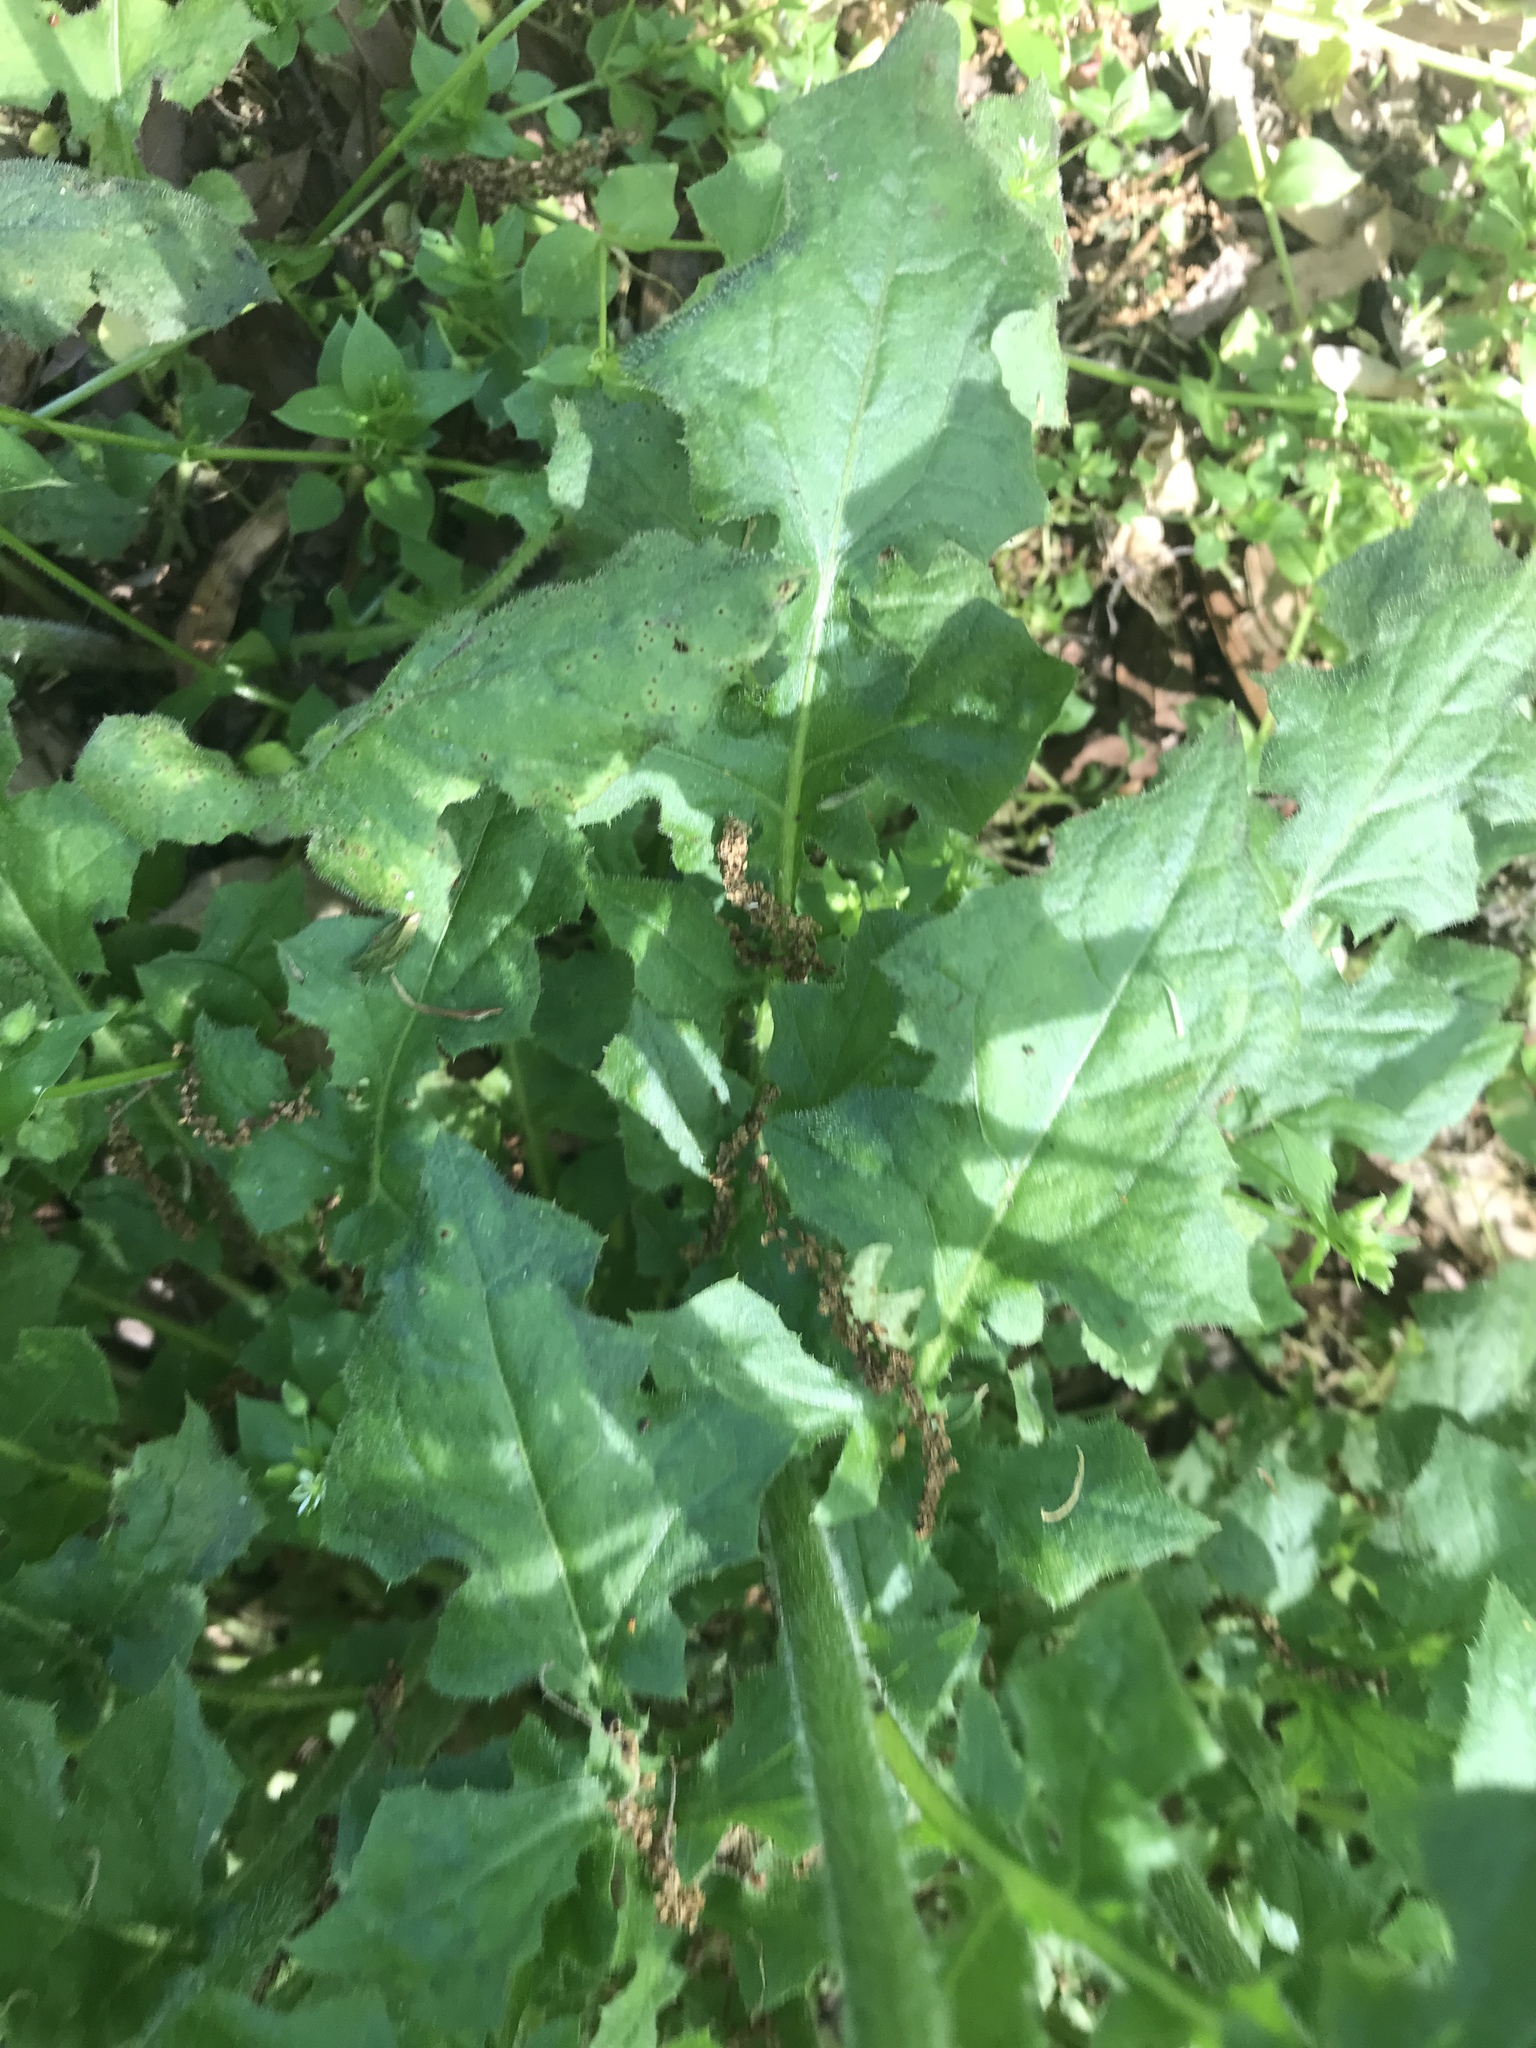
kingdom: Plantae
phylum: Tracheophyta
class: Magnoliopsida
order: Asterales
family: Asteraceae
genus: Youngia
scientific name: Youngia japonica
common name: Oriental false hawksbeard
